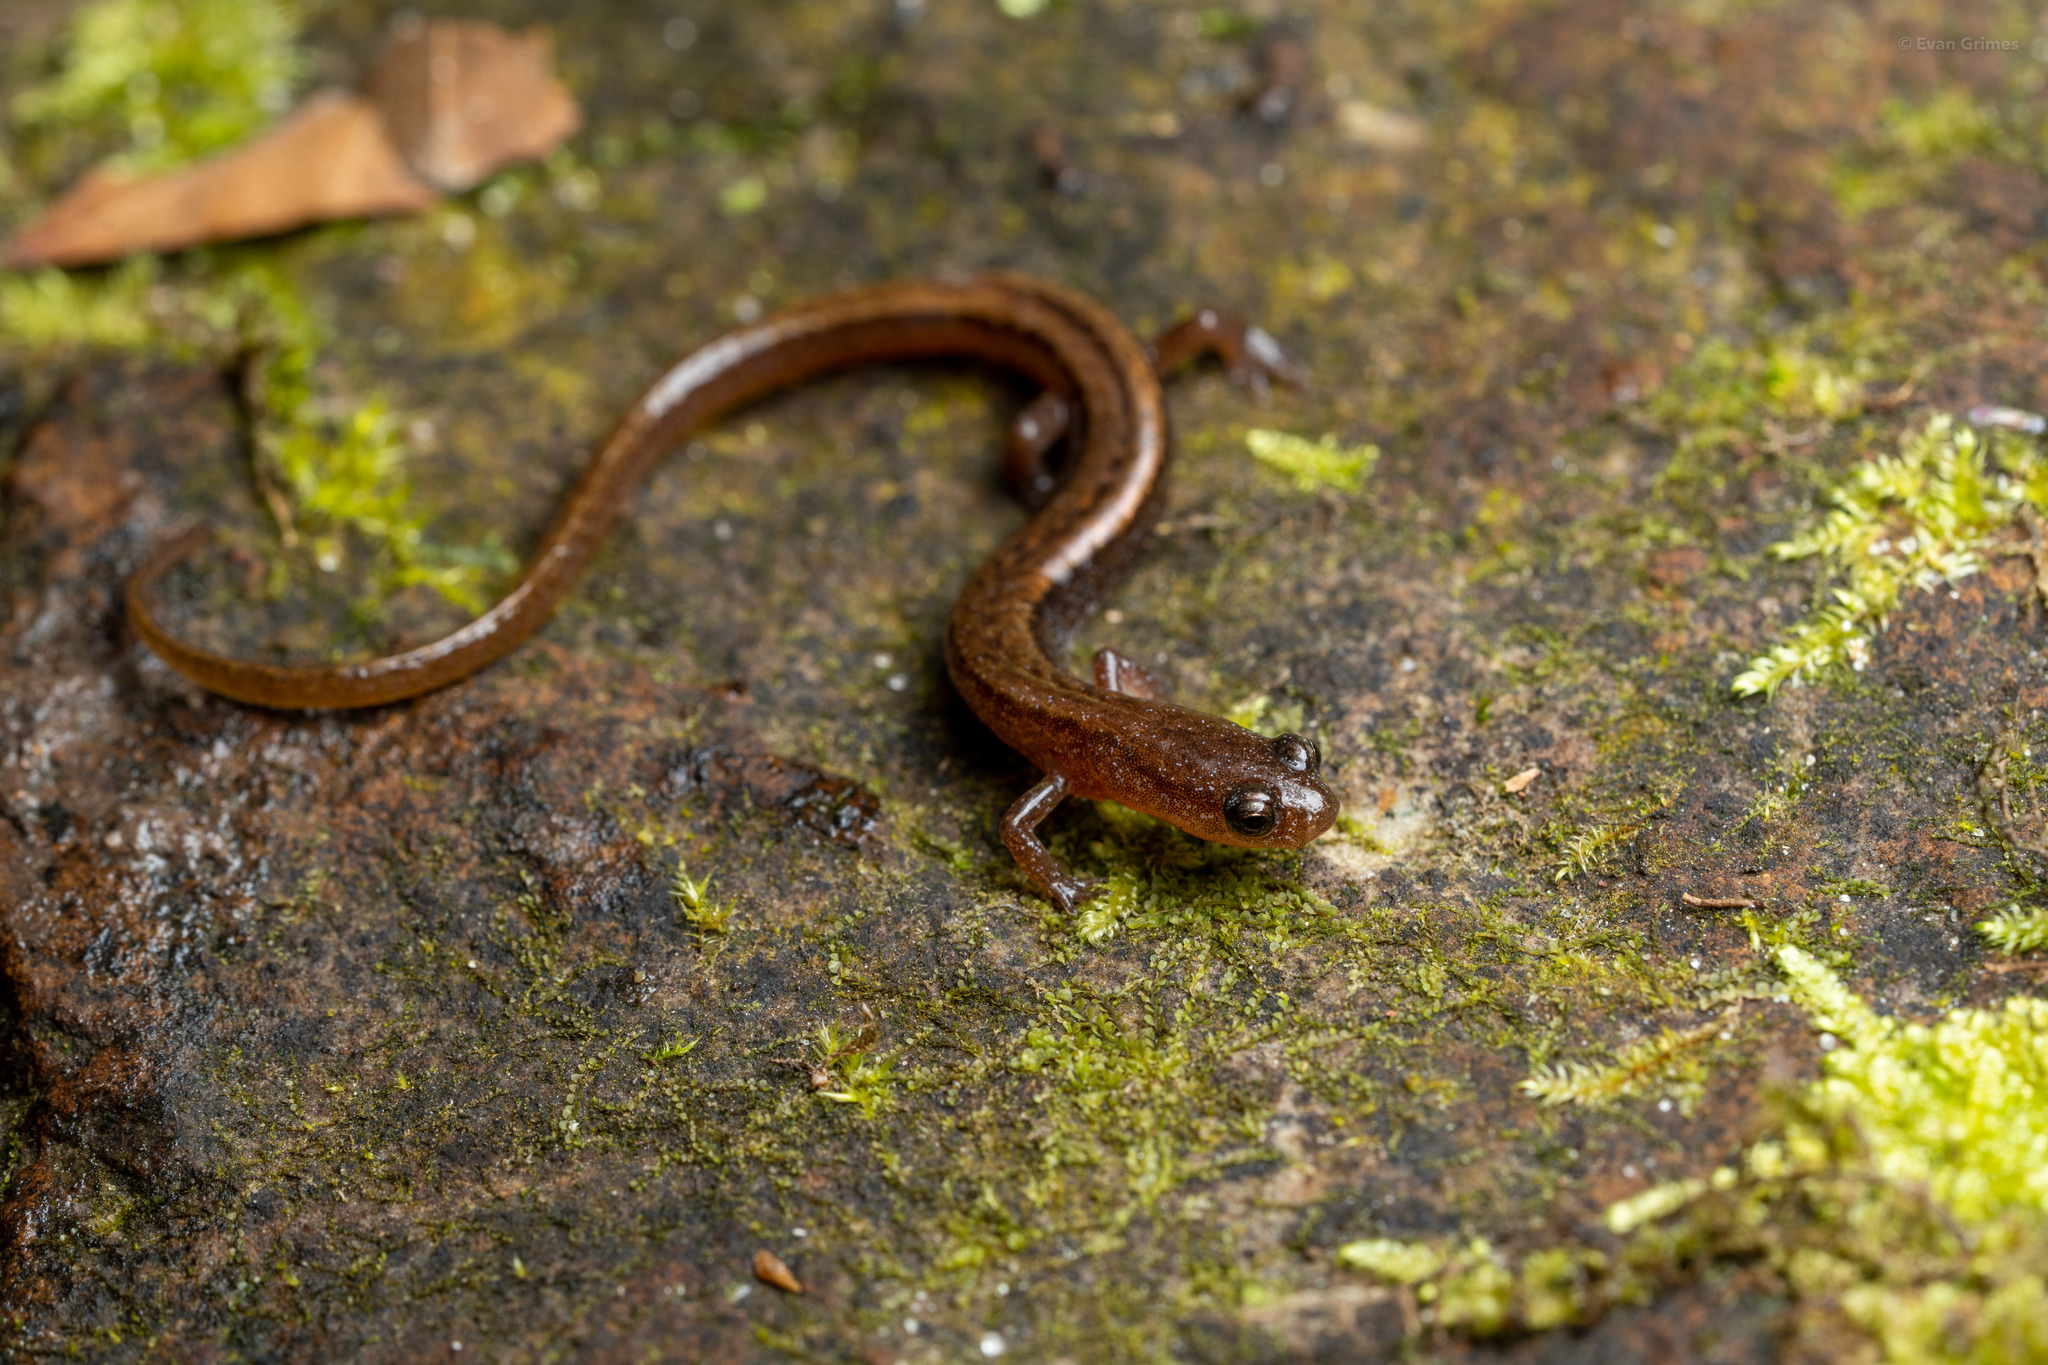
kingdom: Animalia
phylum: Chordata
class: Amphibia
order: Caudata
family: Plethodontidae
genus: Eurycea
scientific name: Eurycea paludicola
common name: Western dwarf salamander
